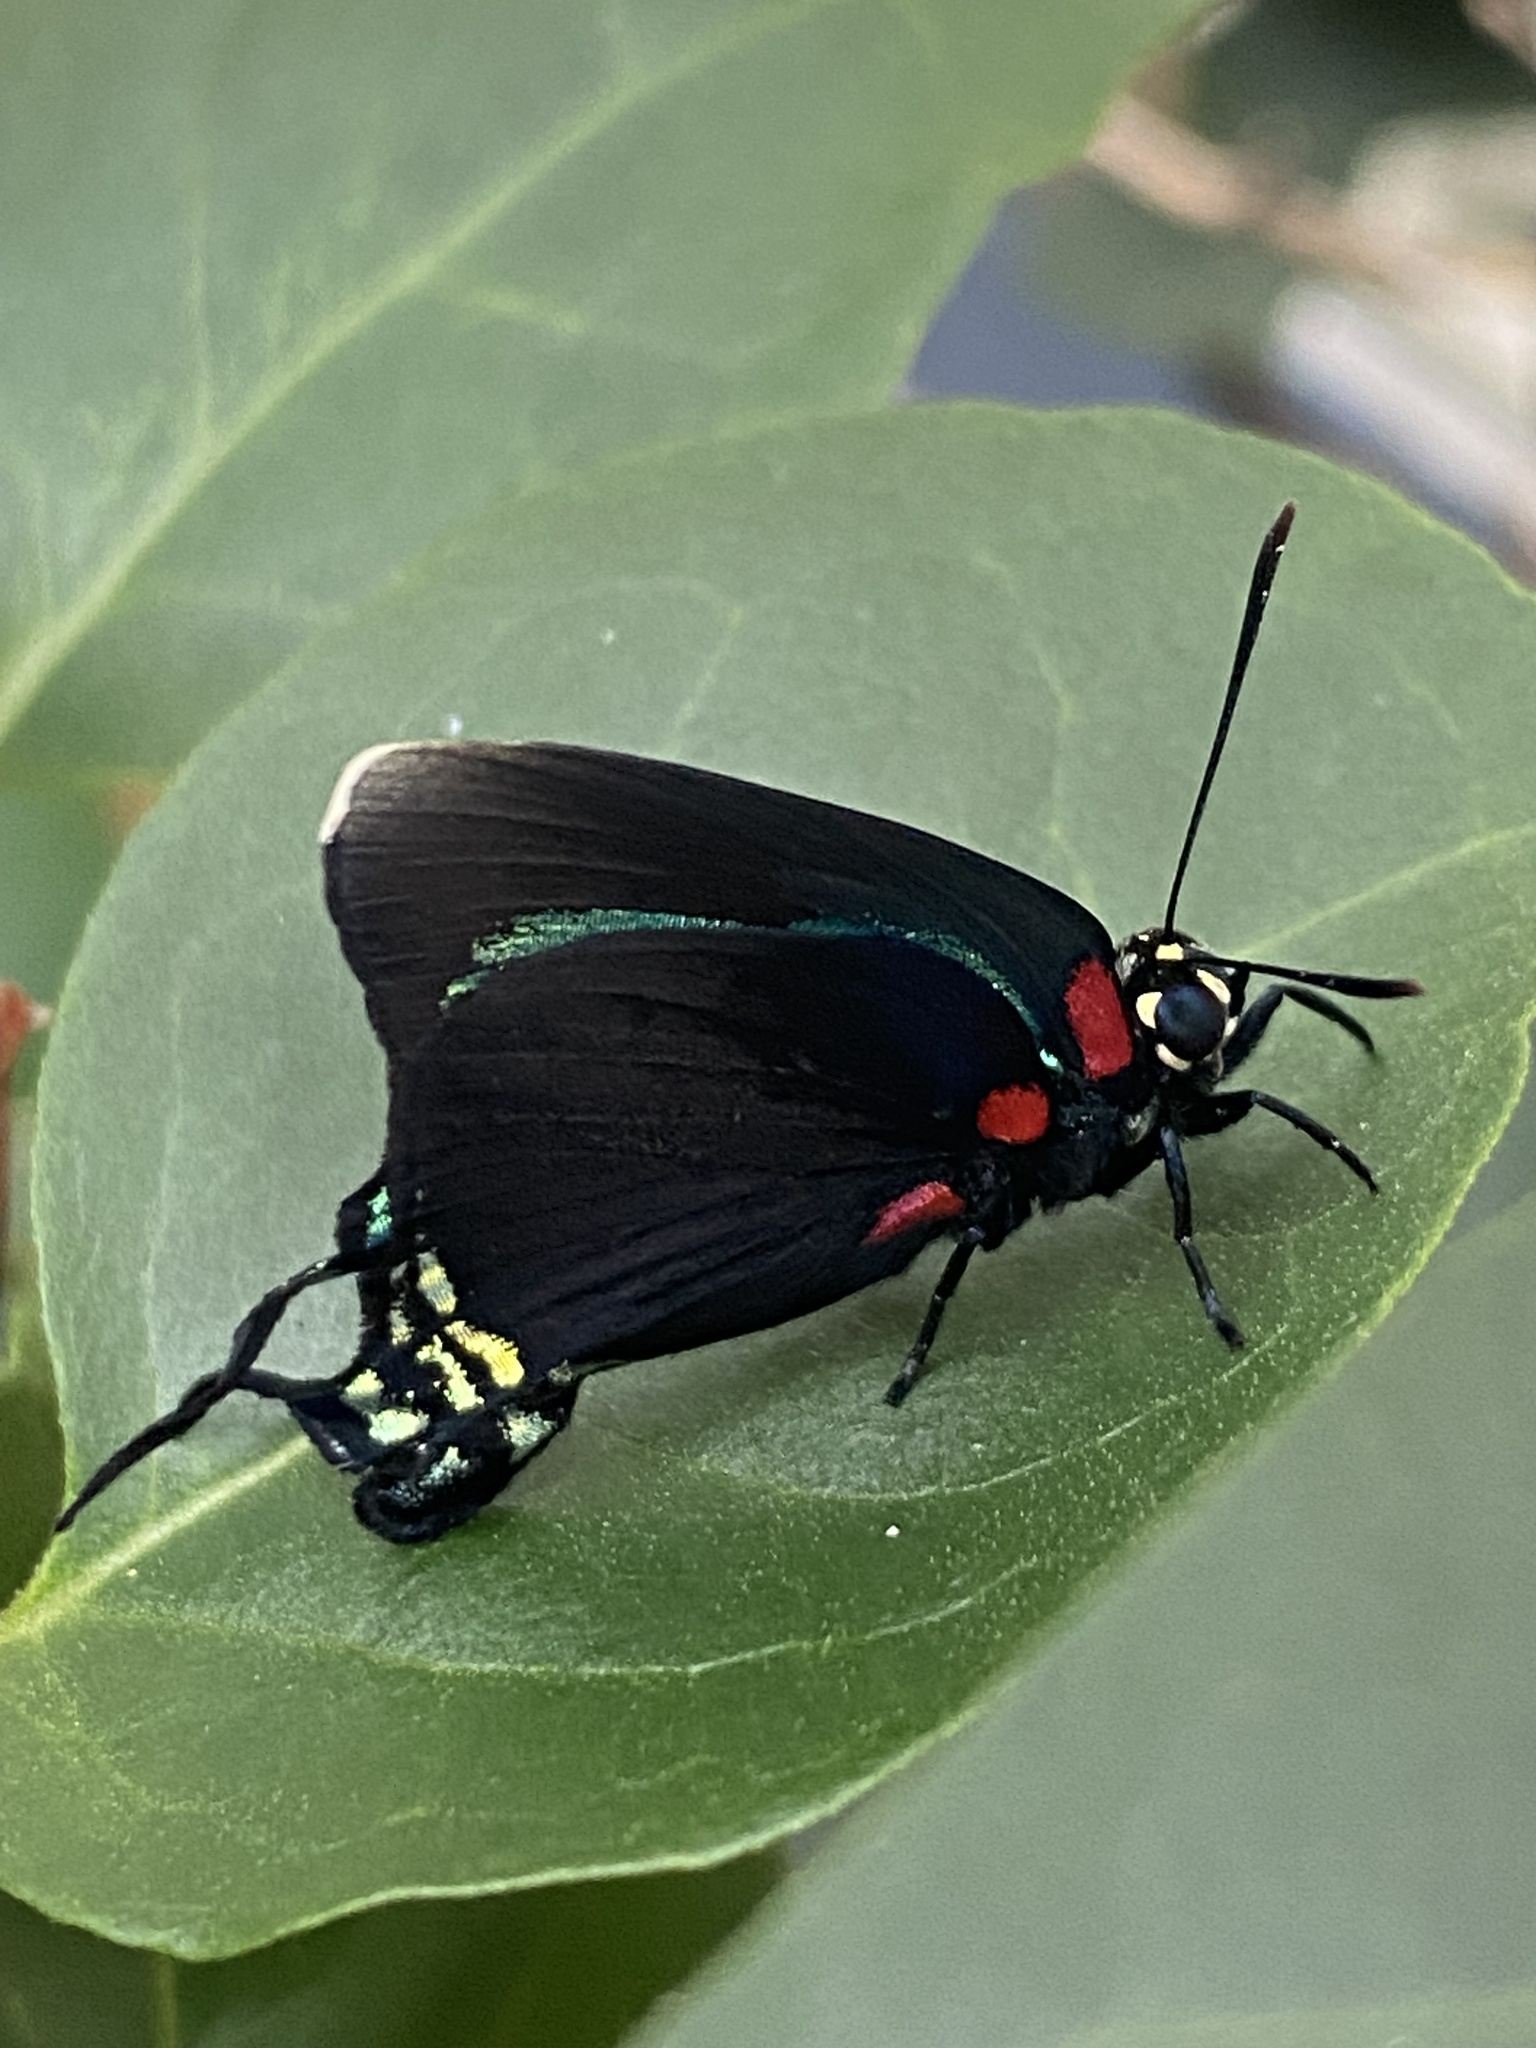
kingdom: Animalia
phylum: Arthropoda
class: Insecta
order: Lepidoptera
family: Lycaenidae
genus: Atlides
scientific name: Atlides
